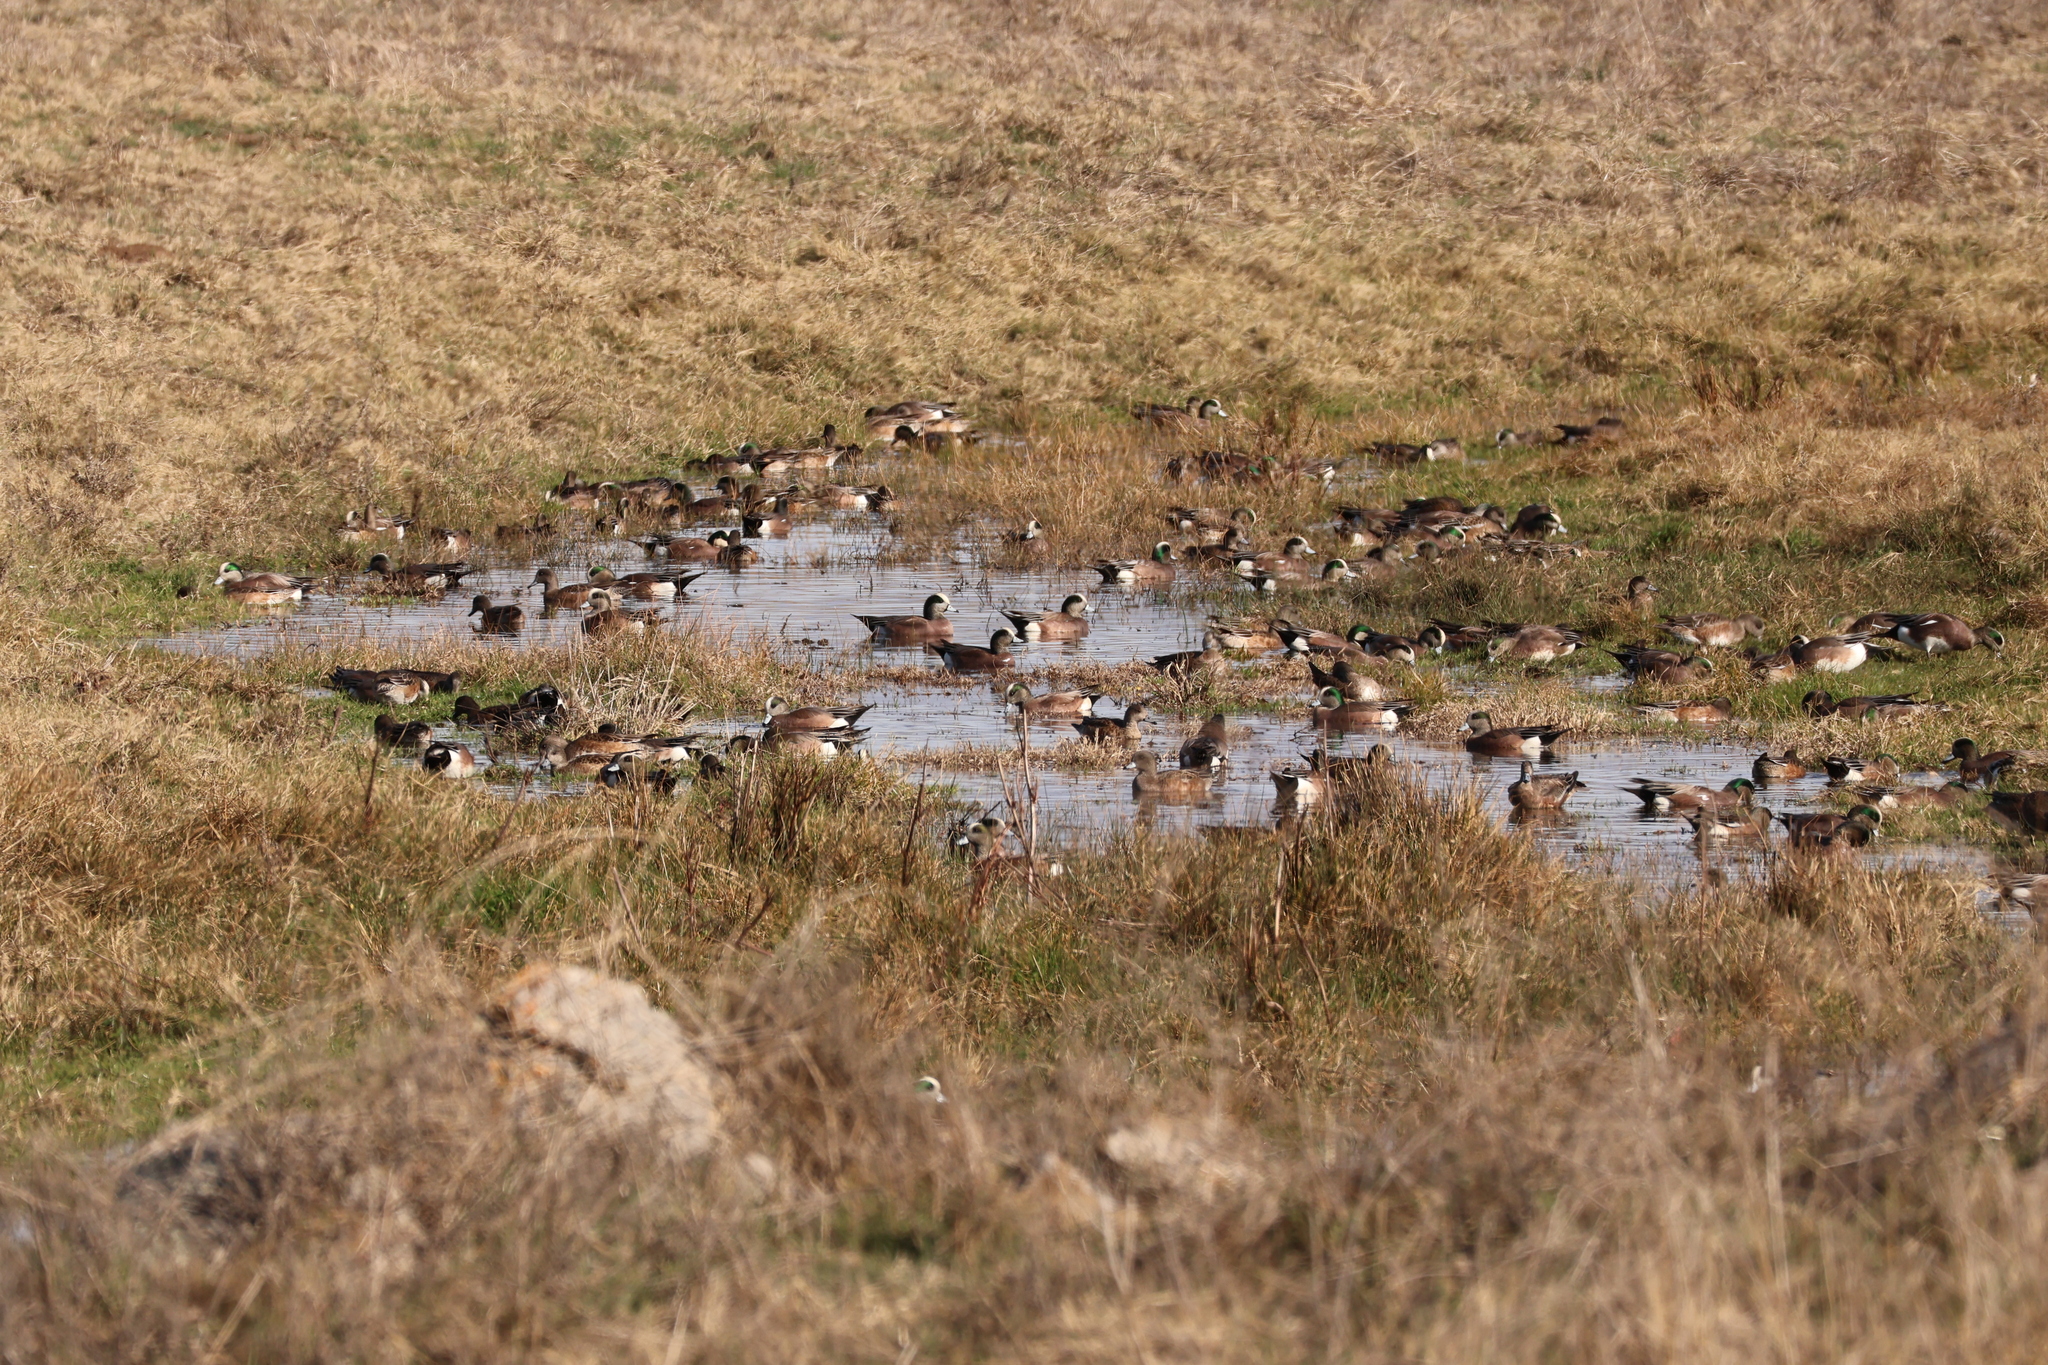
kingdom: Animalia
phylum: Chordata
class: Aves
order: Anseriformes
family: Anatidae
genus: Mareca
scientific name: Mareca americana
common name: American wigeon
